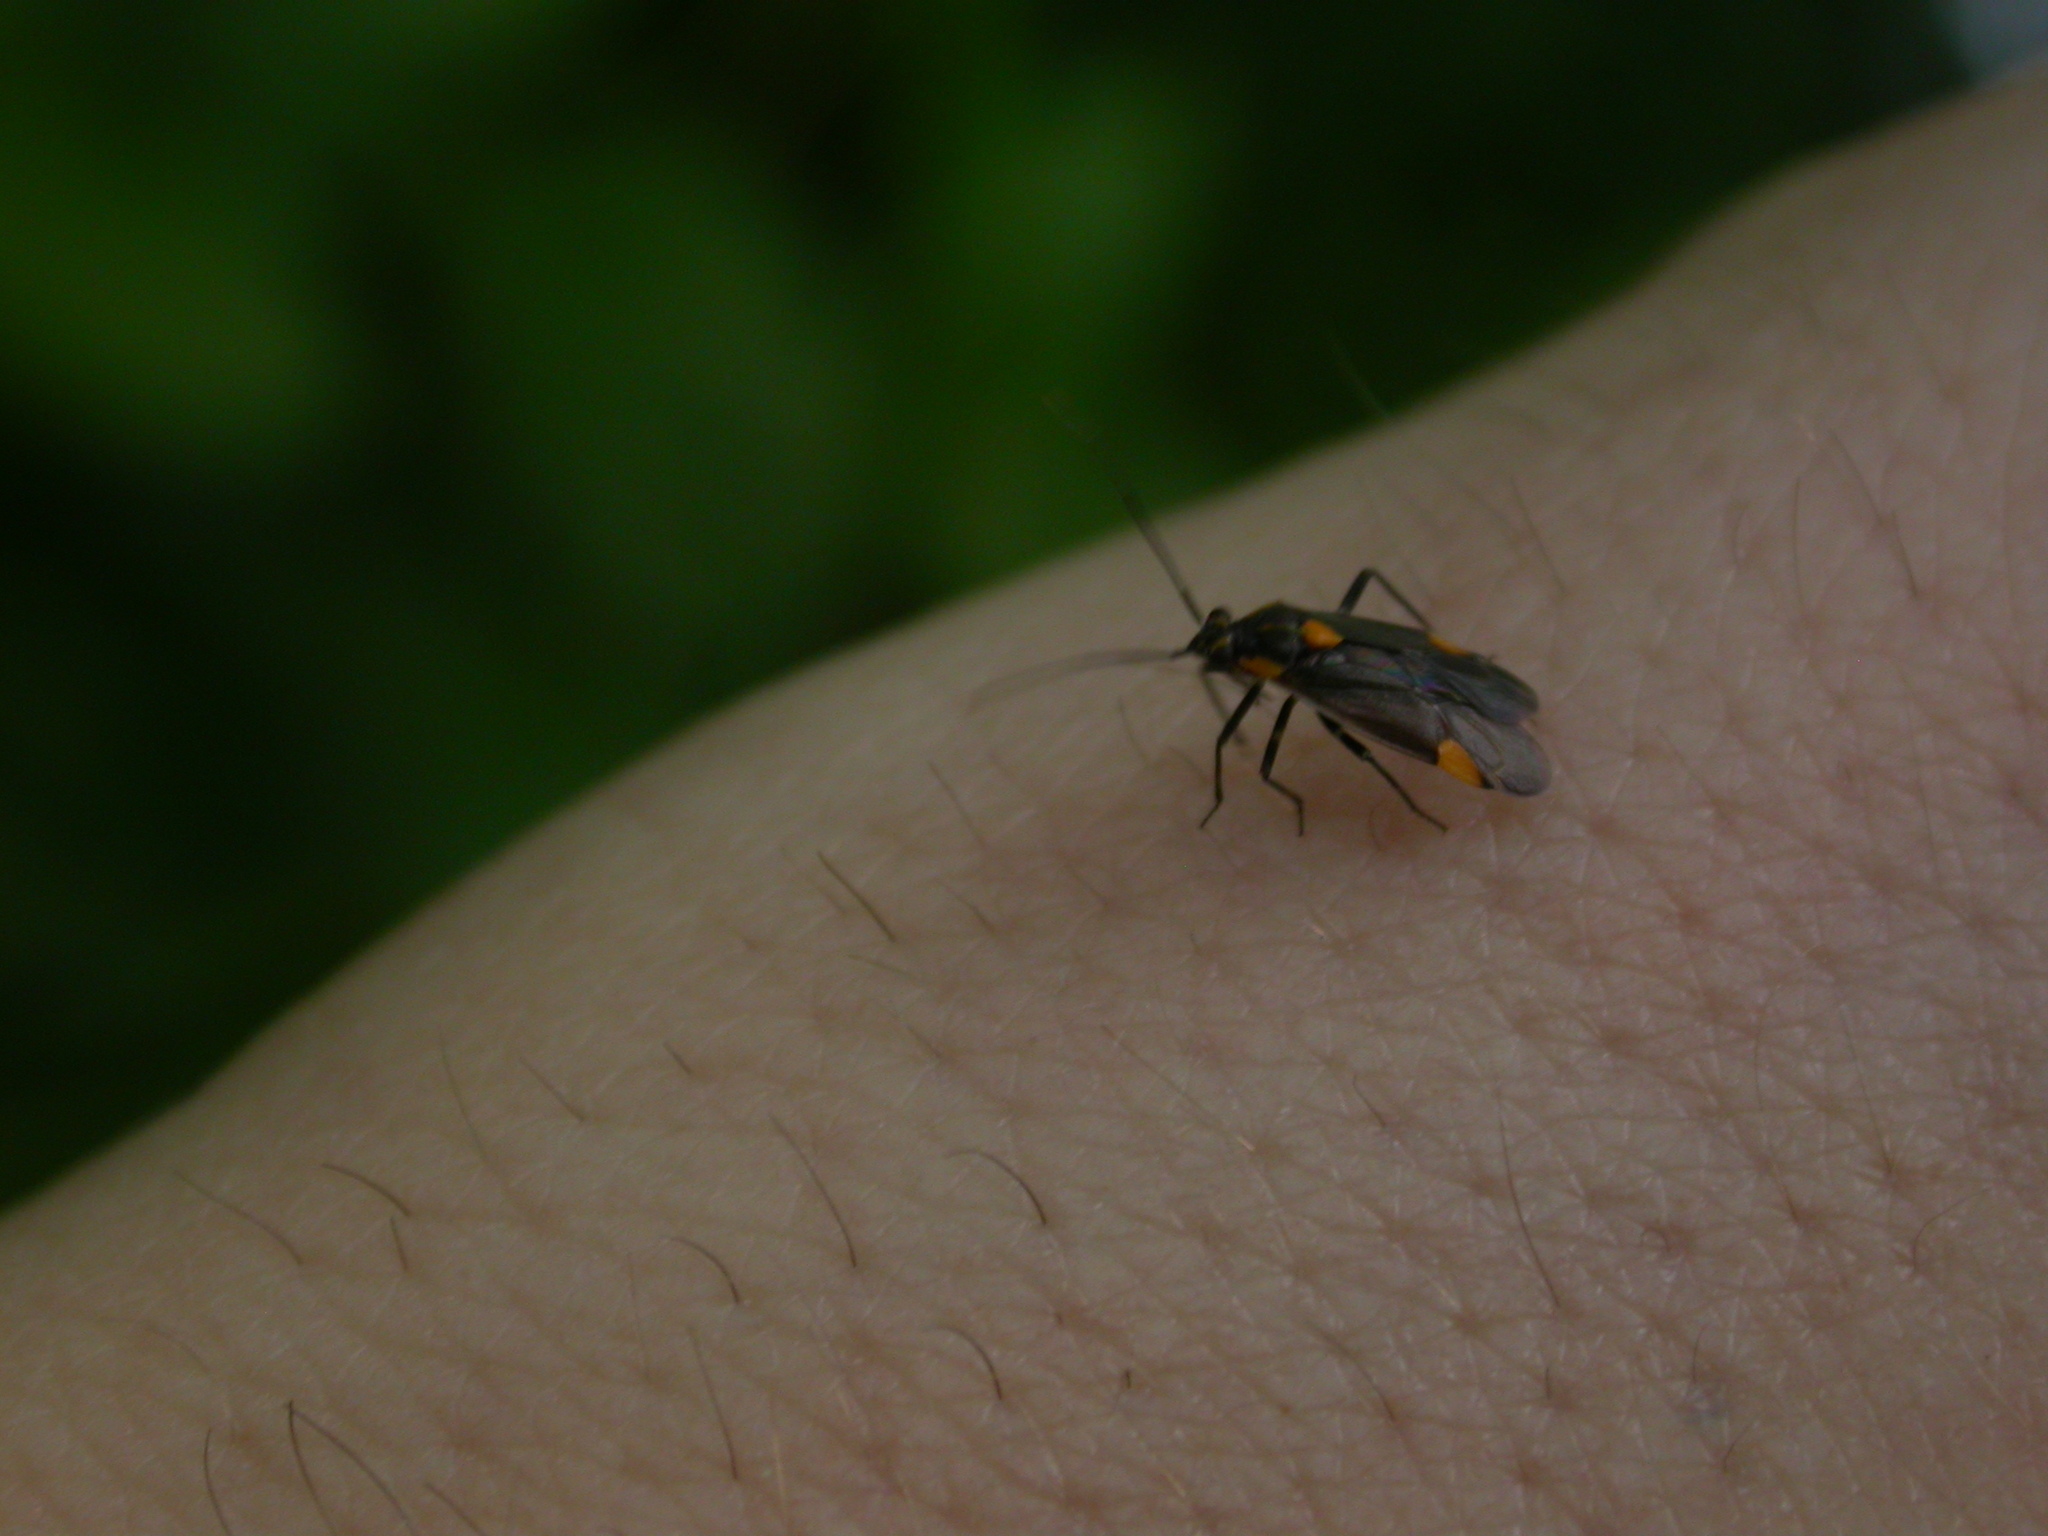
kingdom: Animalia
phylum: Arthropoda
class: Insecta
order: Hemiptera
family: Miridae
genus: Capsodes
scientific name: Capsodes flavomarginatus
